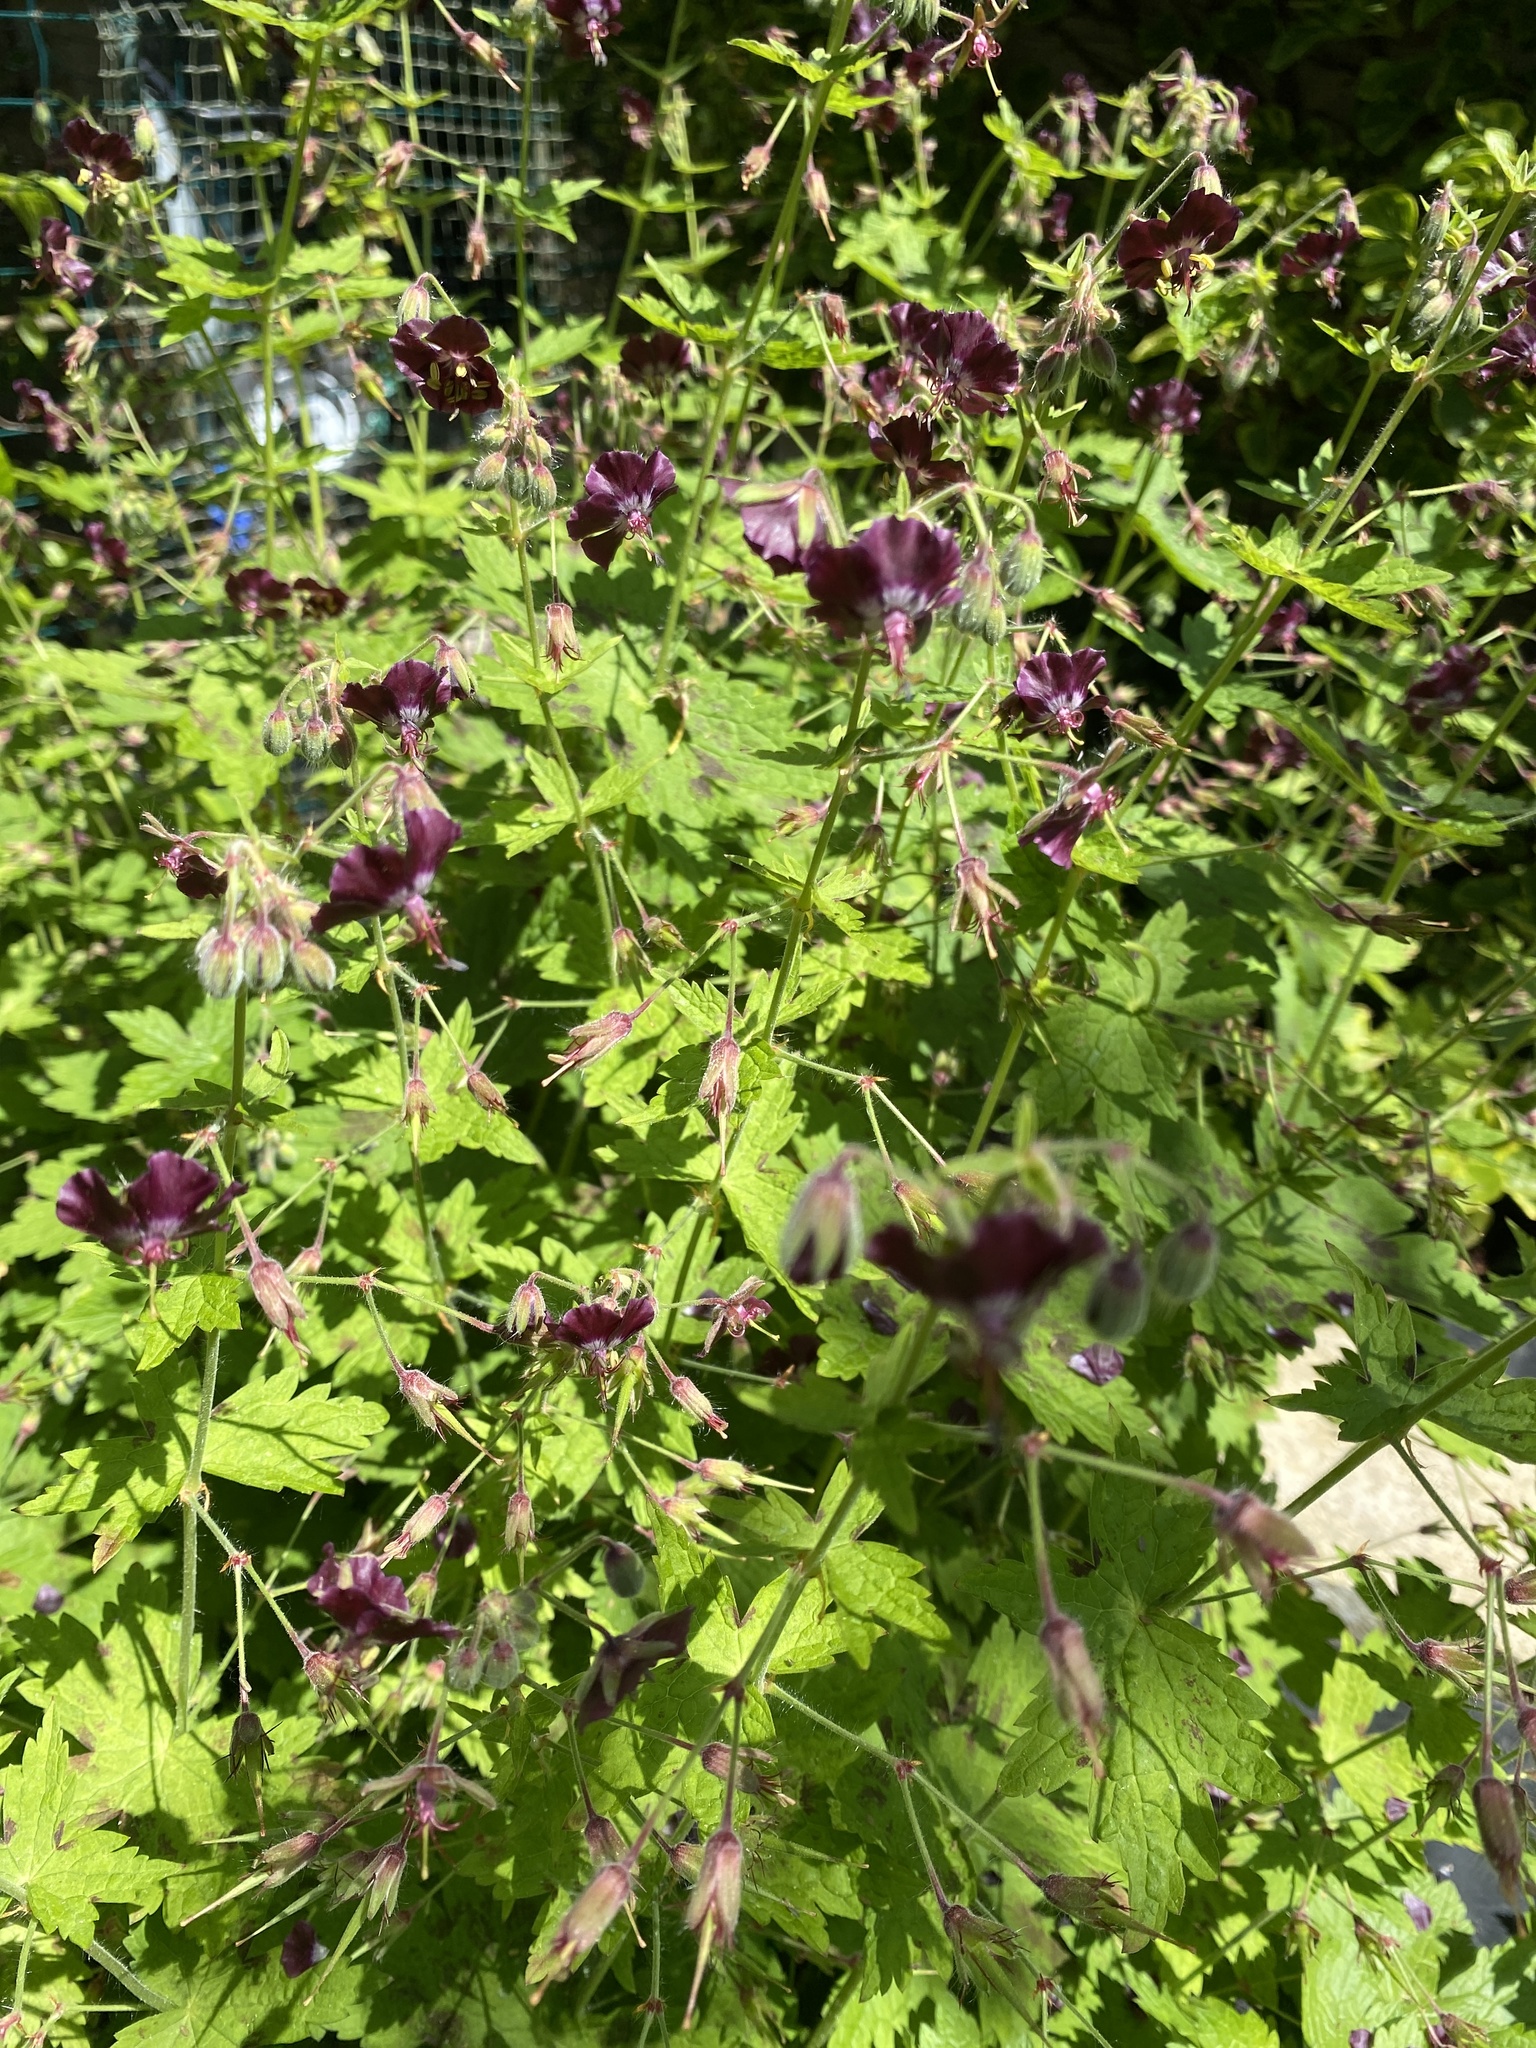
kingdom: Plantae
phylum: Tracheophyta
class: Magnoliopsida
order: Geraniales
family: Geraniaceae
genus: Geranium
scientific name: Geranium phaeum
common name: Dusky crane's-bill
